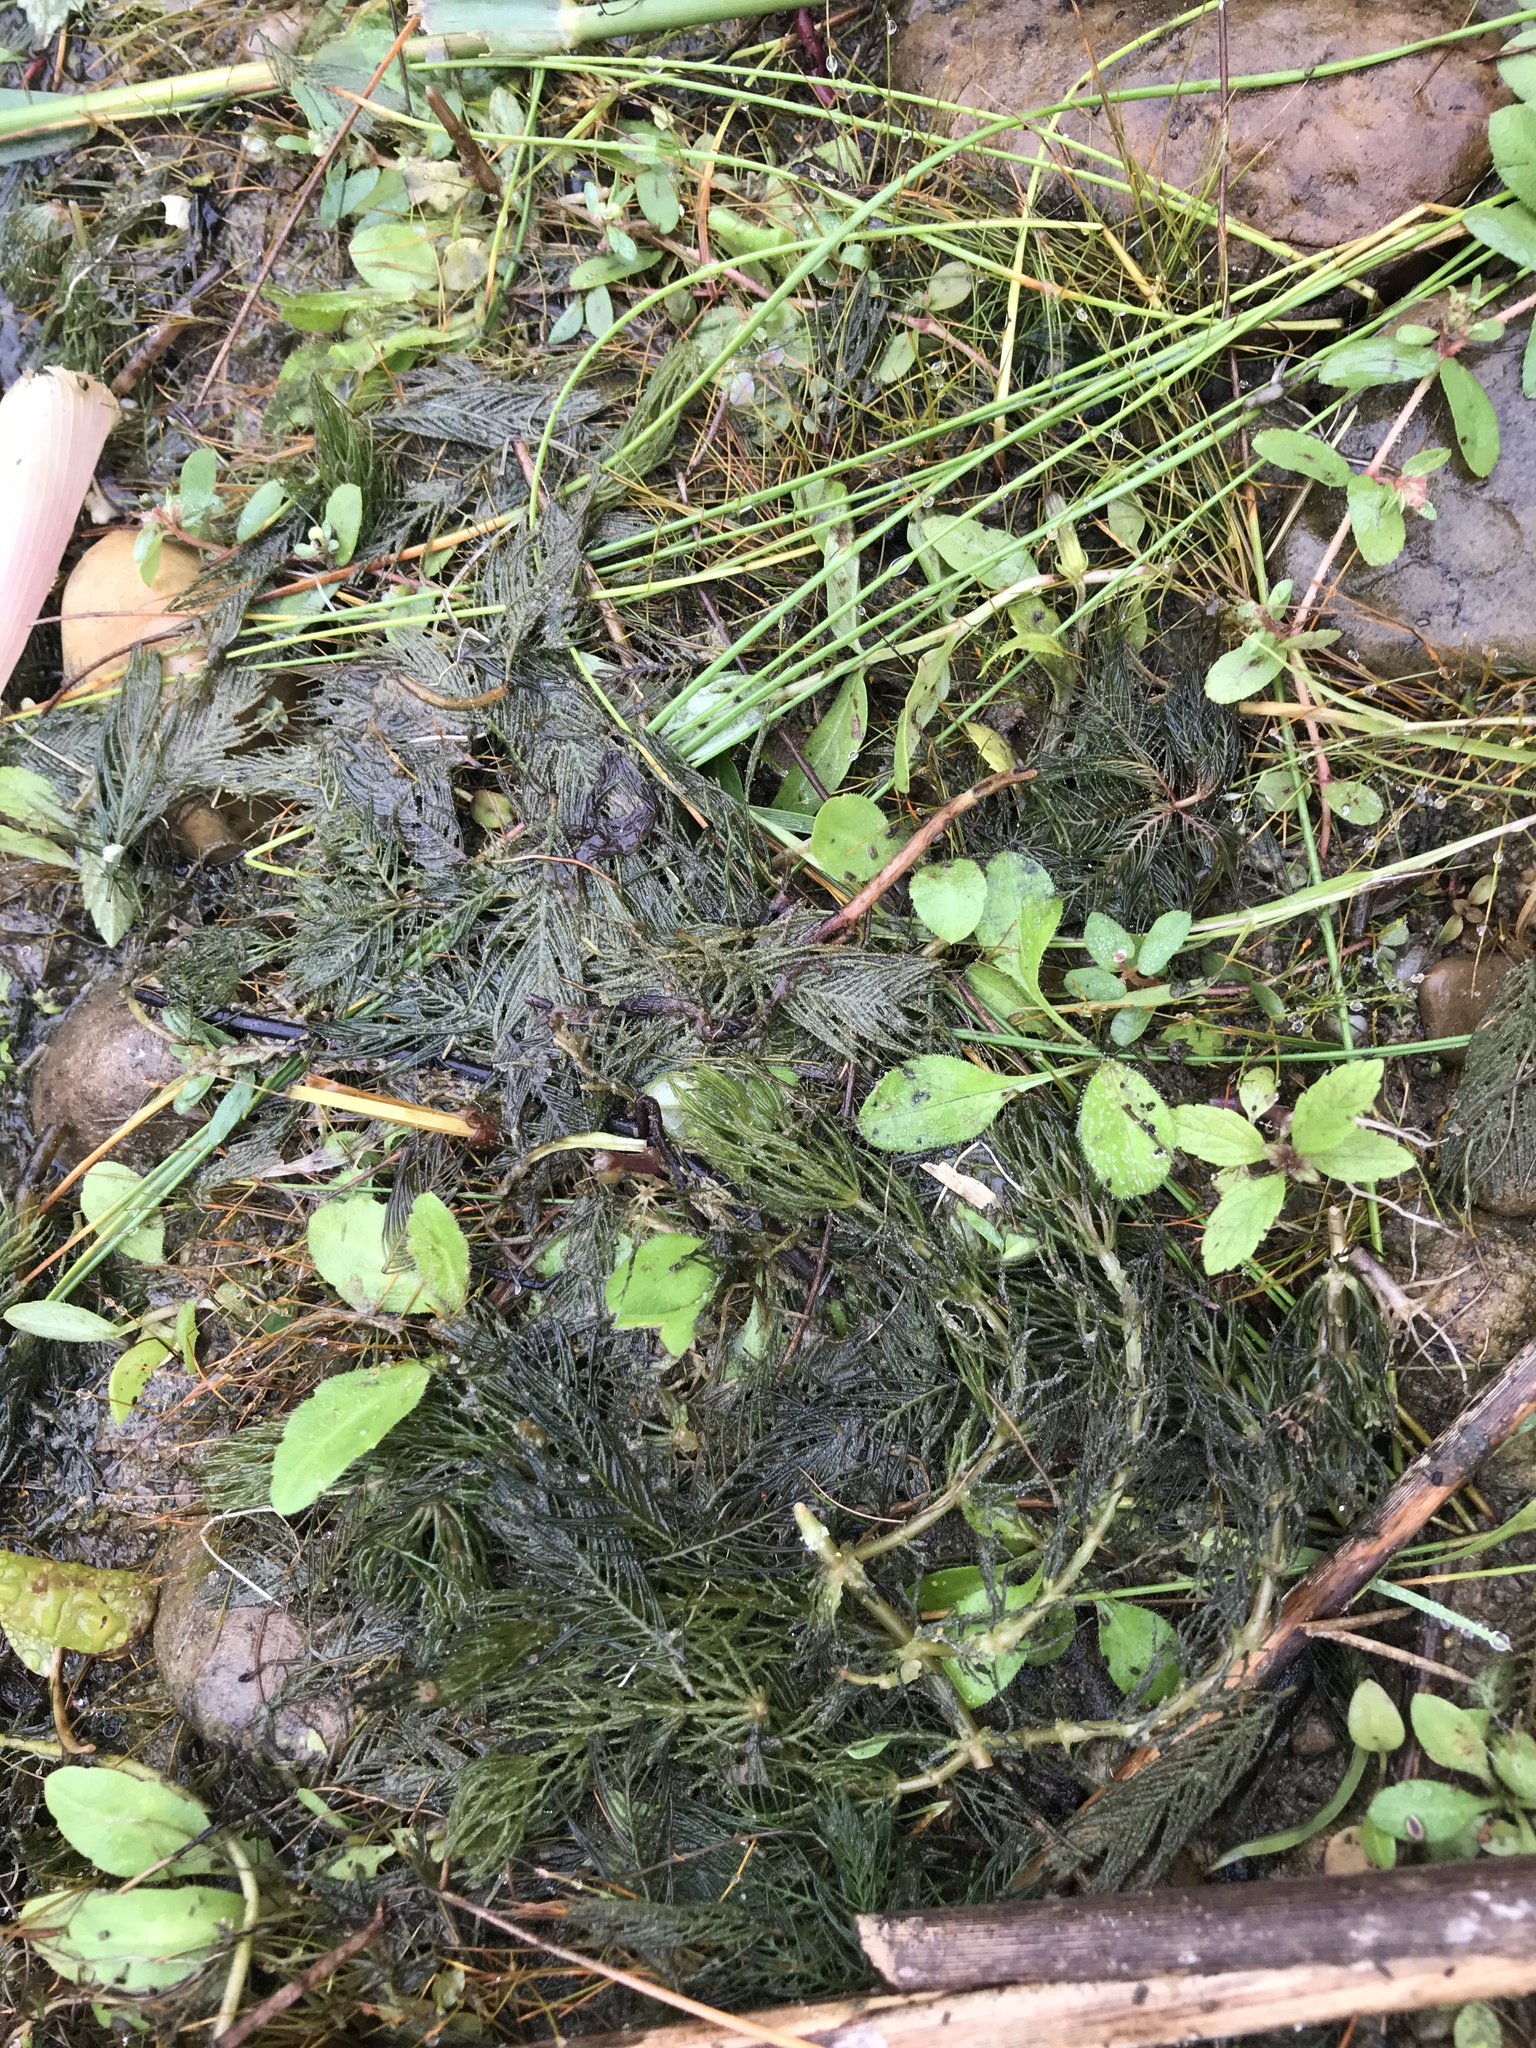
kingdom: Plantae
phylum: Tracheophyta
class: Magnoliopsida
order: Saxifragales
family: Haloragaceae
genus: Myriophyllum
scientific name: Myriophyllum spicatum
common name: Spiked water-milfoil
